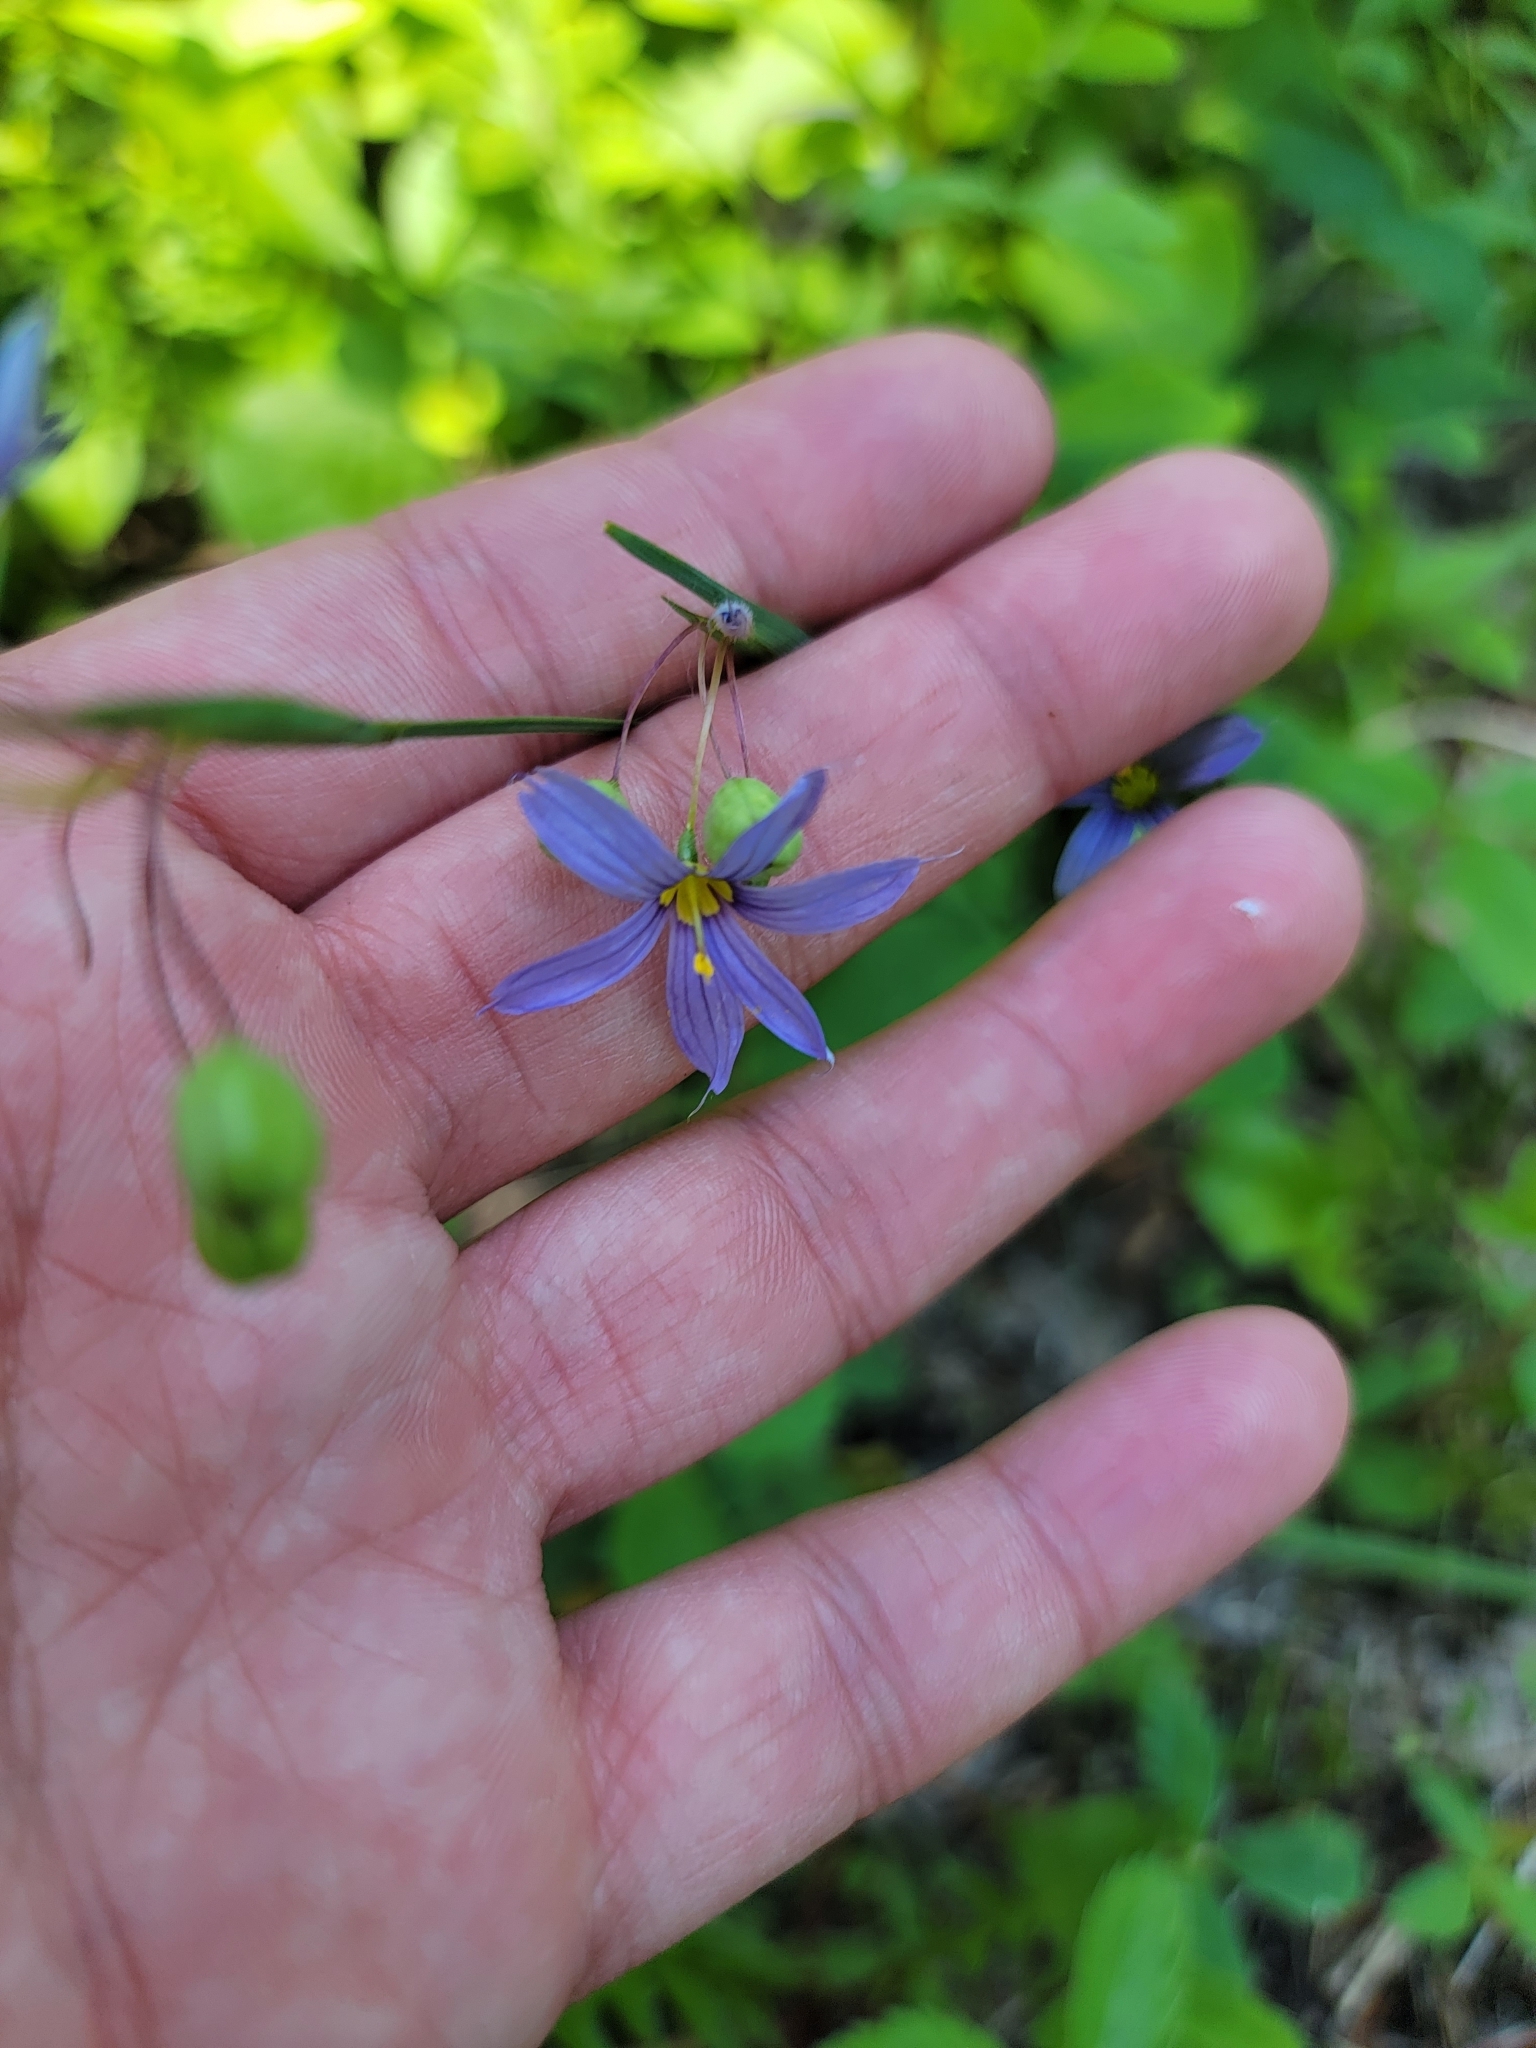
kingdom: Plantae
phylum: Tracheophyta
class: Liliopsida
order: Asparagales
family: Iridaceae
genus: Sisyrinchium
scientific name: Sisyrinchium montanum
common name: American blue-eyed-grass
